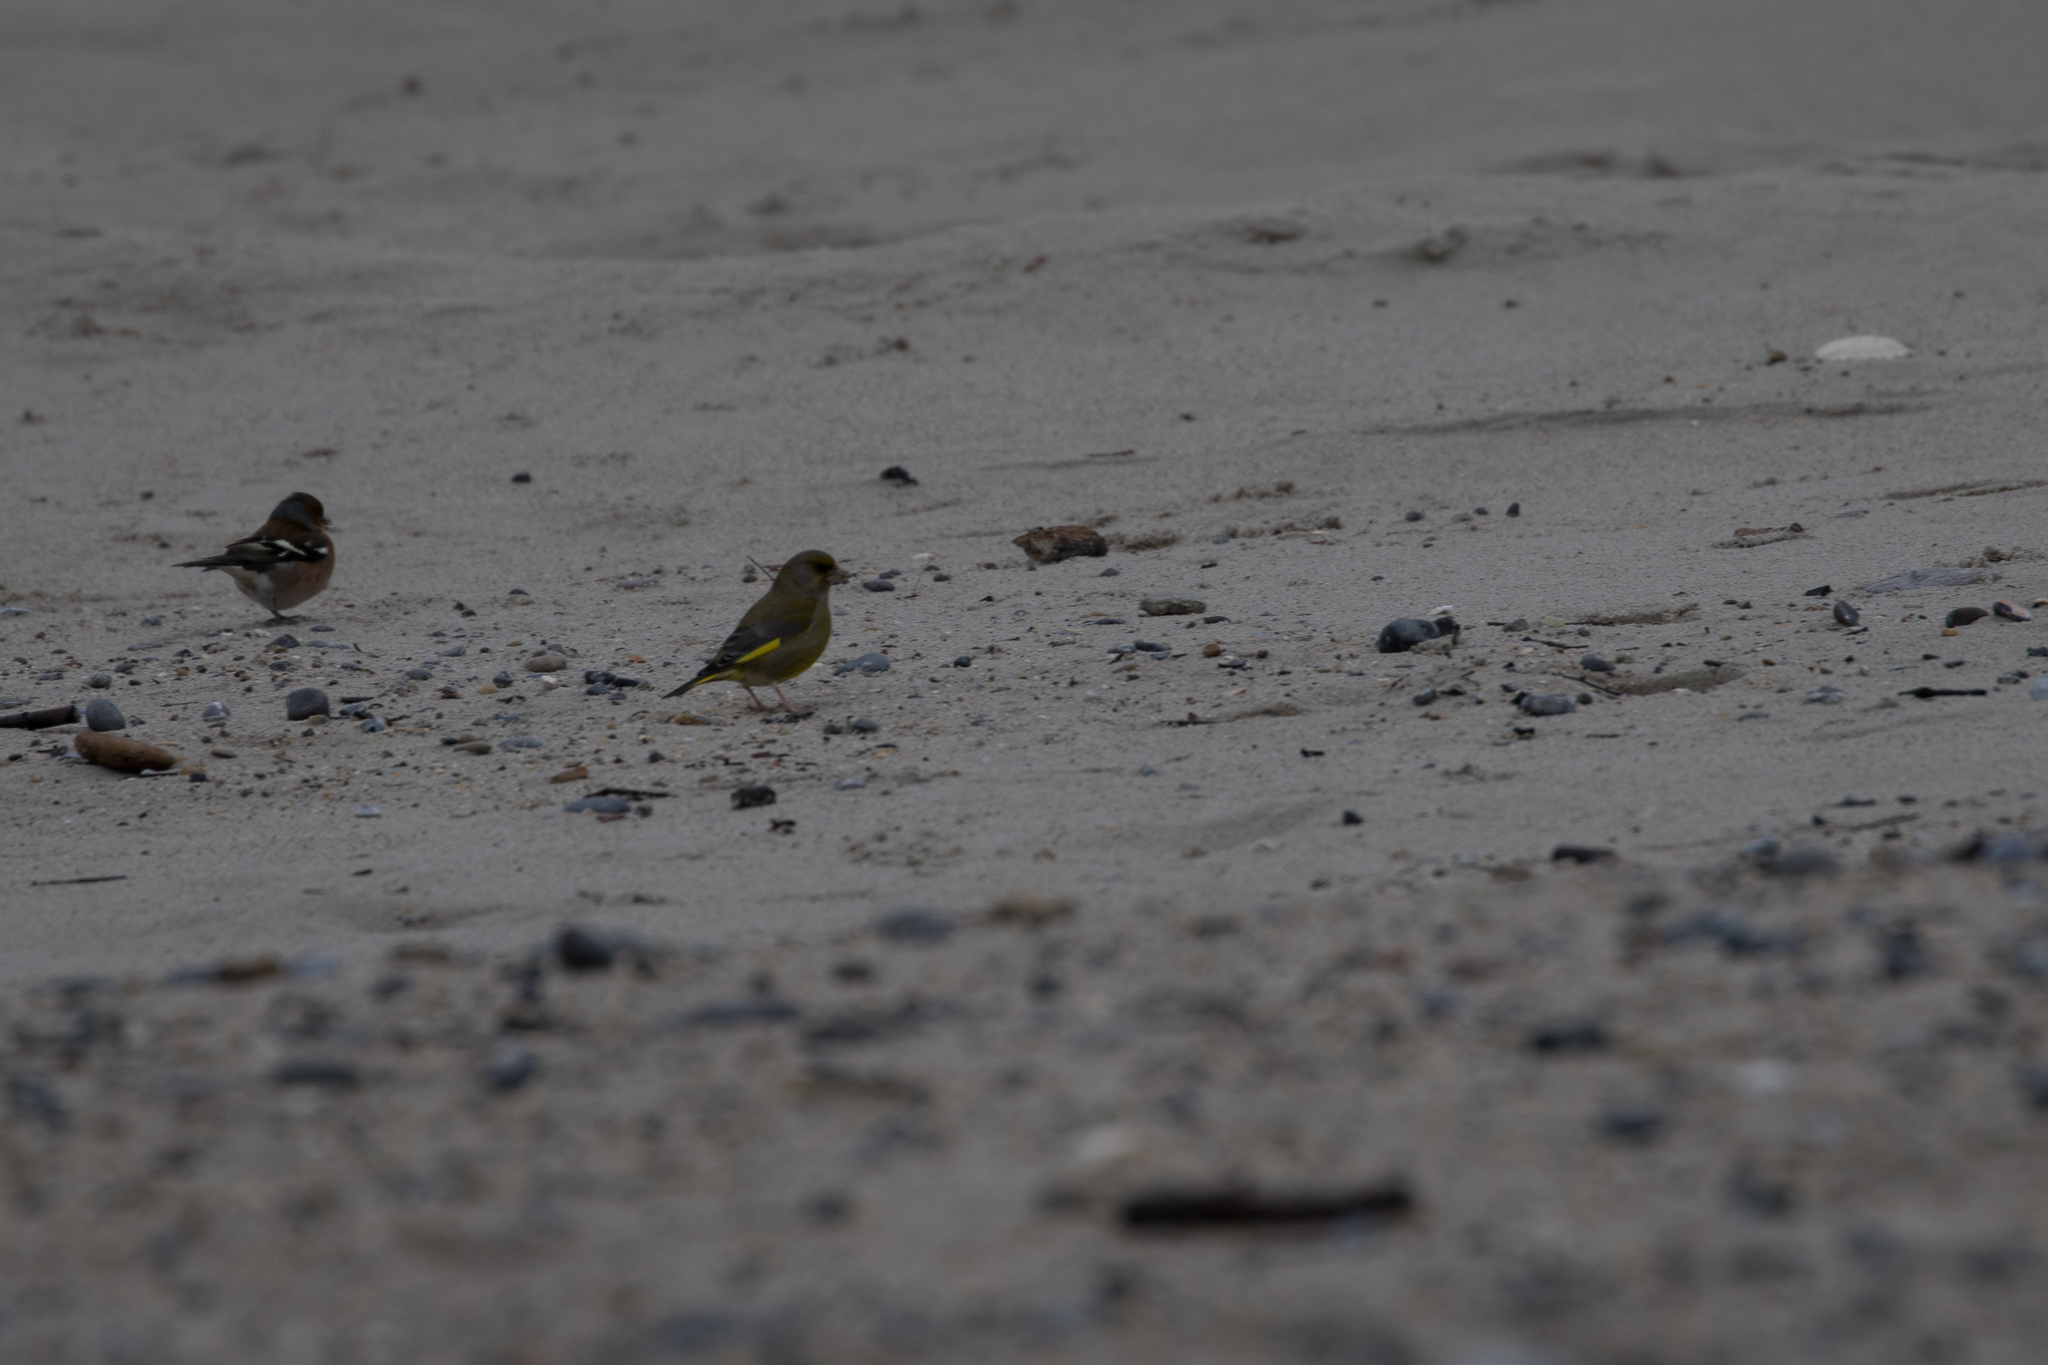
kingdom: Plantae
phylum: Tracheophyta
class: Liliopsida
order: Poales
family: Poaceae
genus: Chloris
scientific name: Chloris chloris
